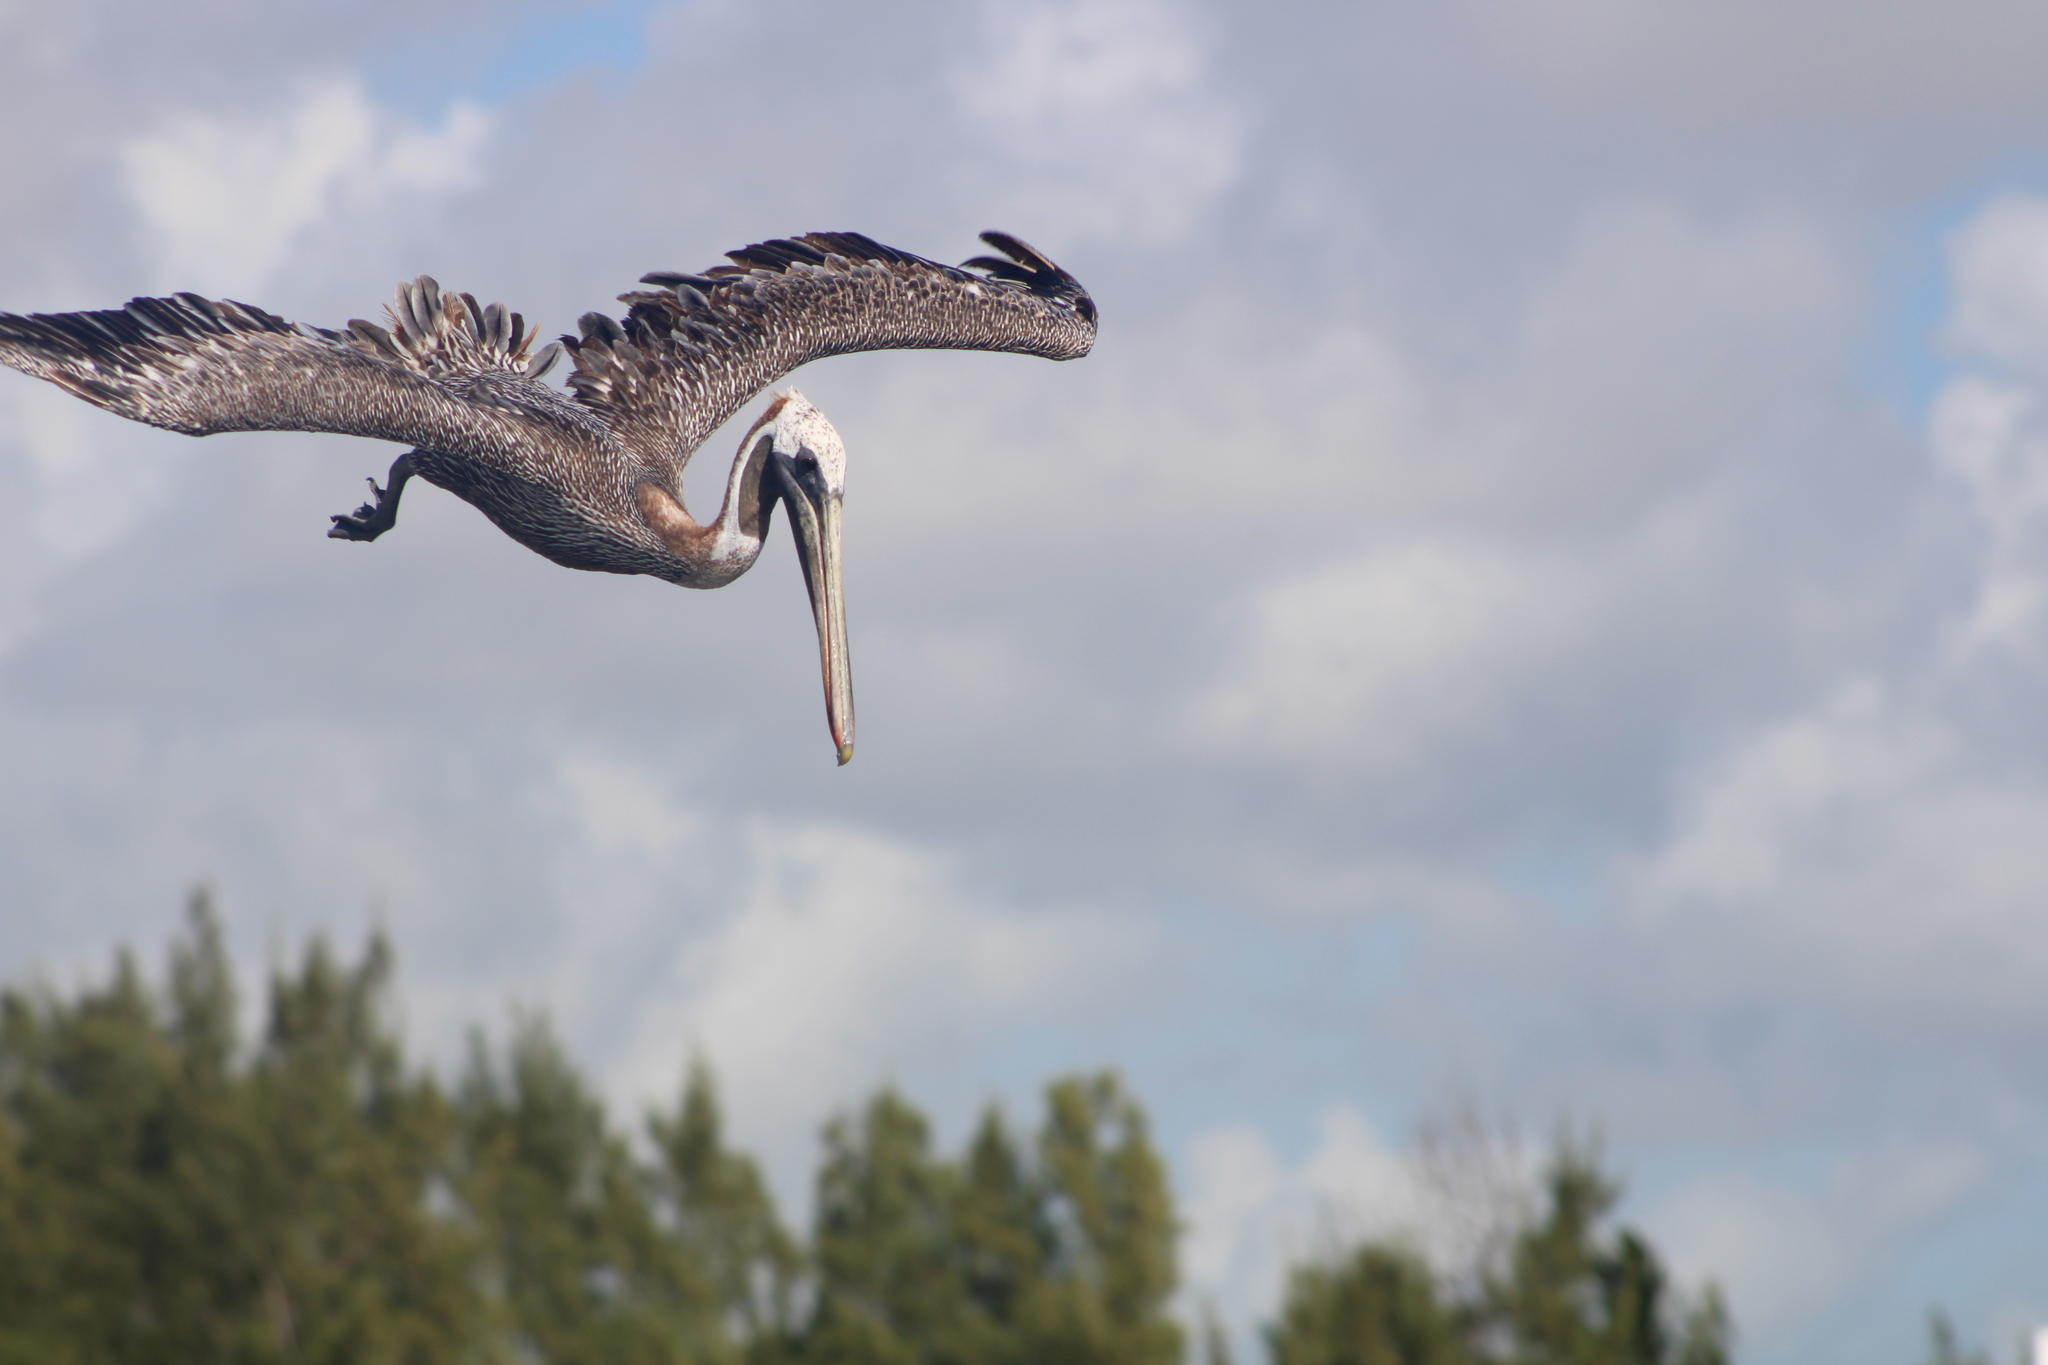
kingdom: Animalia
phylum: Chordata
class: Aves
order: Pelecaniformes
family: Pelecanidae
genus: Pelecanus
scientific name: Pelecanus occidentalis
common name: Brown pelican
